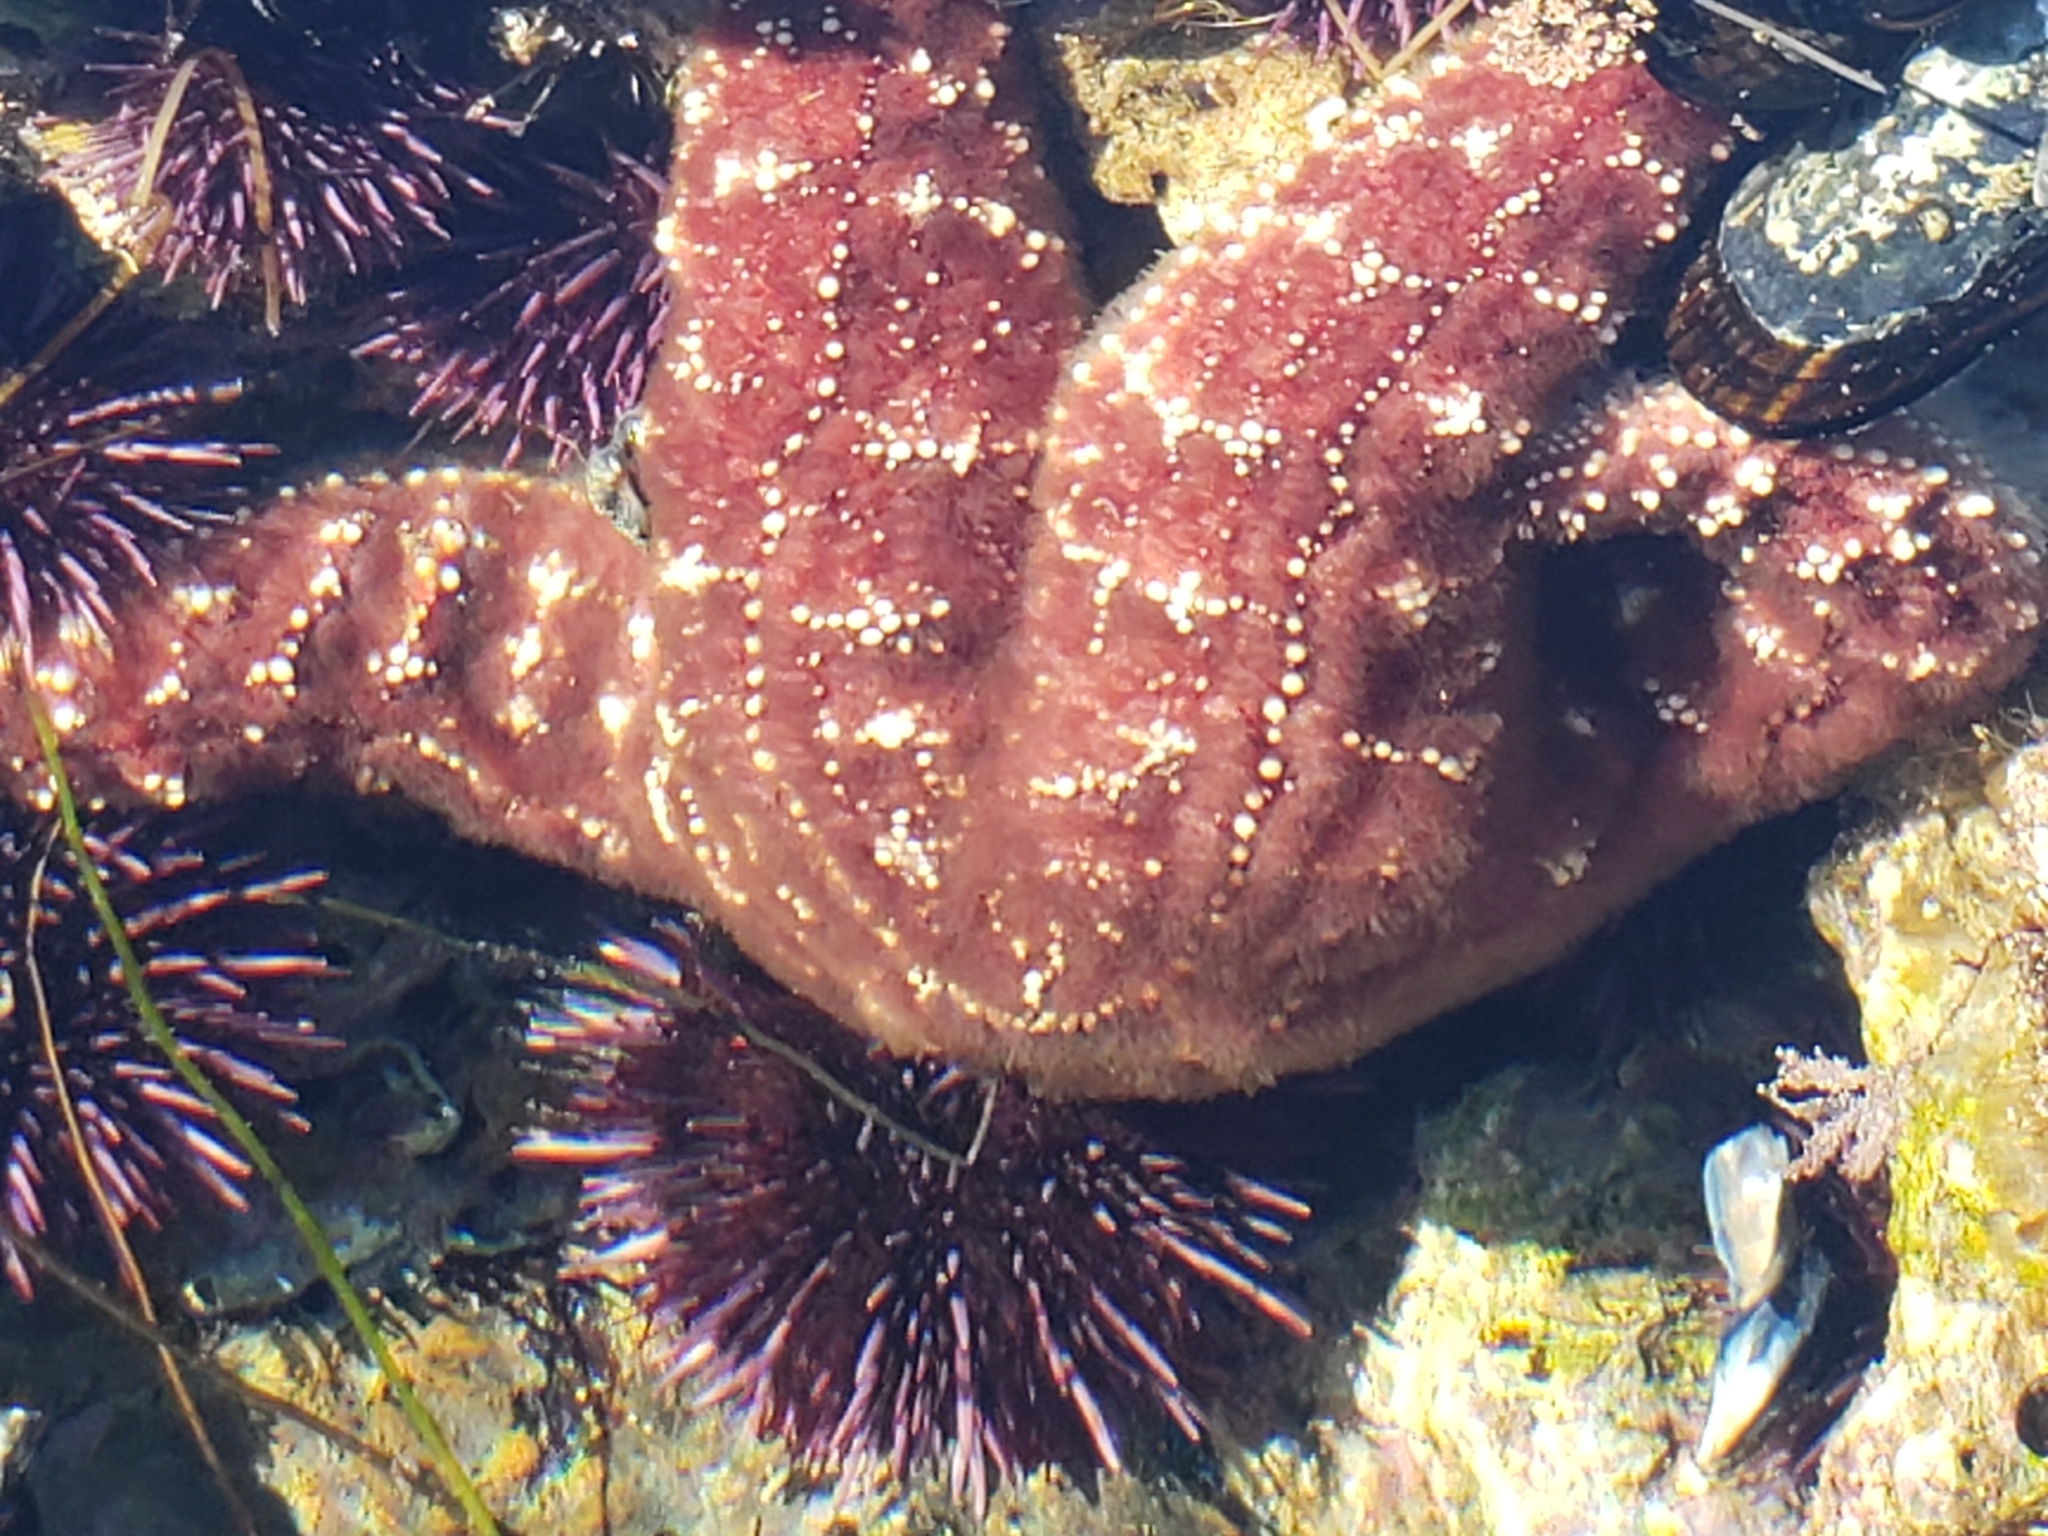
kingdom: Animalia
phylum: Echinodermata
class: Asteroidea
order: Forcipulatida
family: Asteriidae
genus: Pisaster
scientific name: Pisaster ochraceus
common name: Ochre stars
